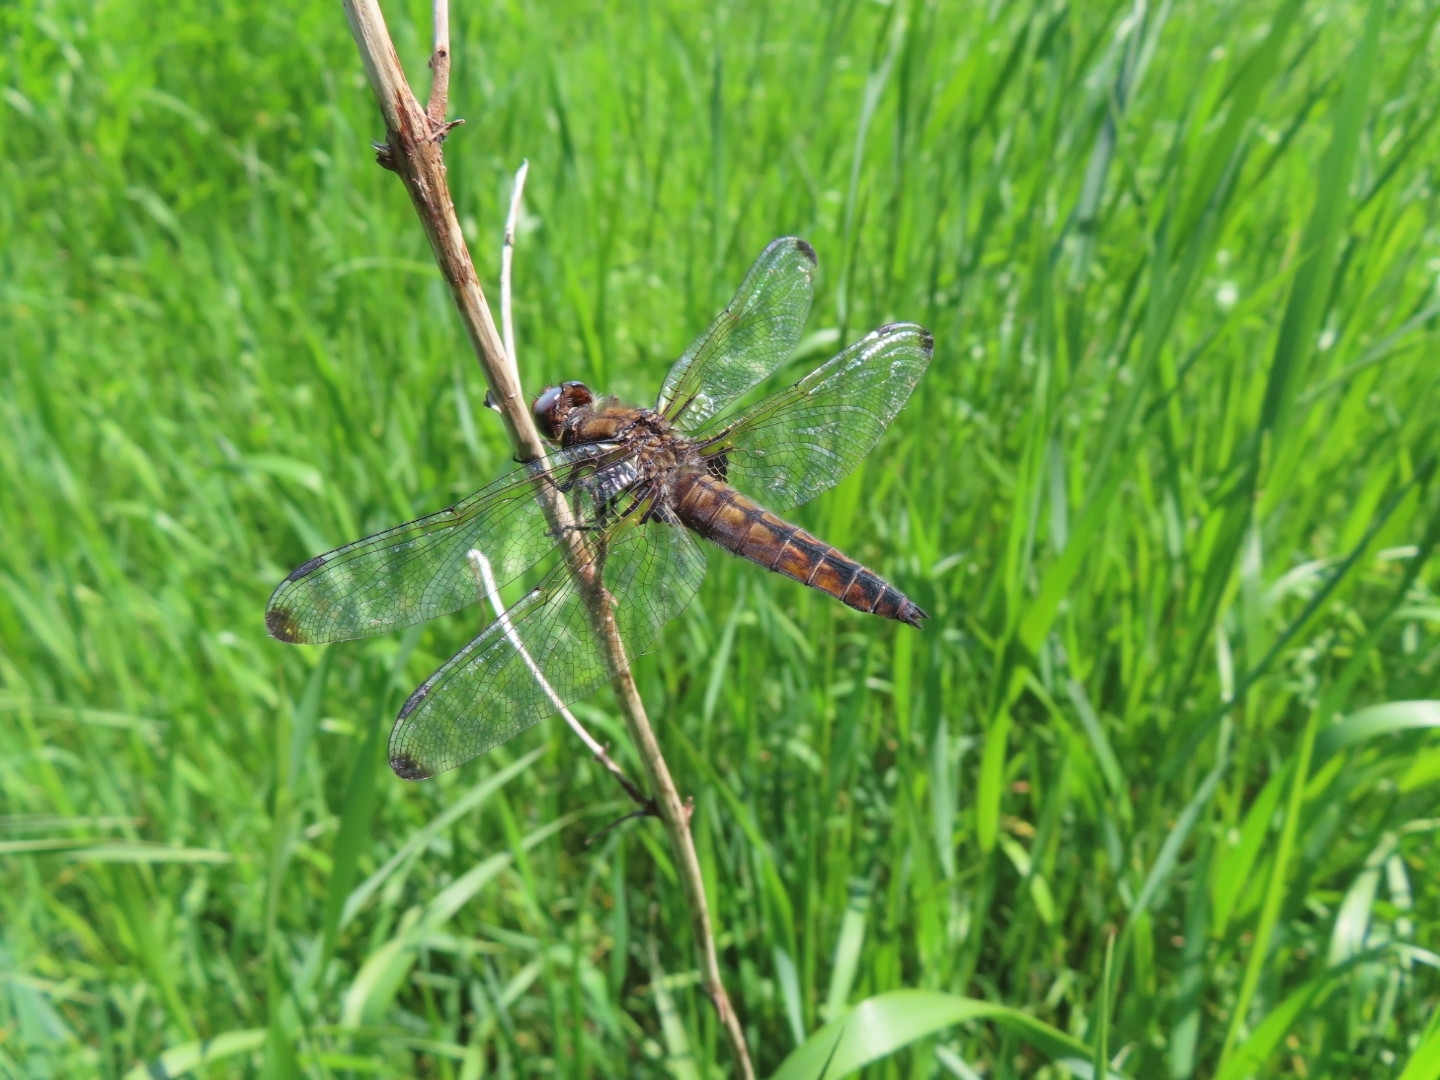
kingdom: Animalia
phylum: Arthropoda
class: Insecta
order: Odonata
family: Libellulidae
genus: Libellula
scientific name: Libellula fulva
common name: Blue chaser
